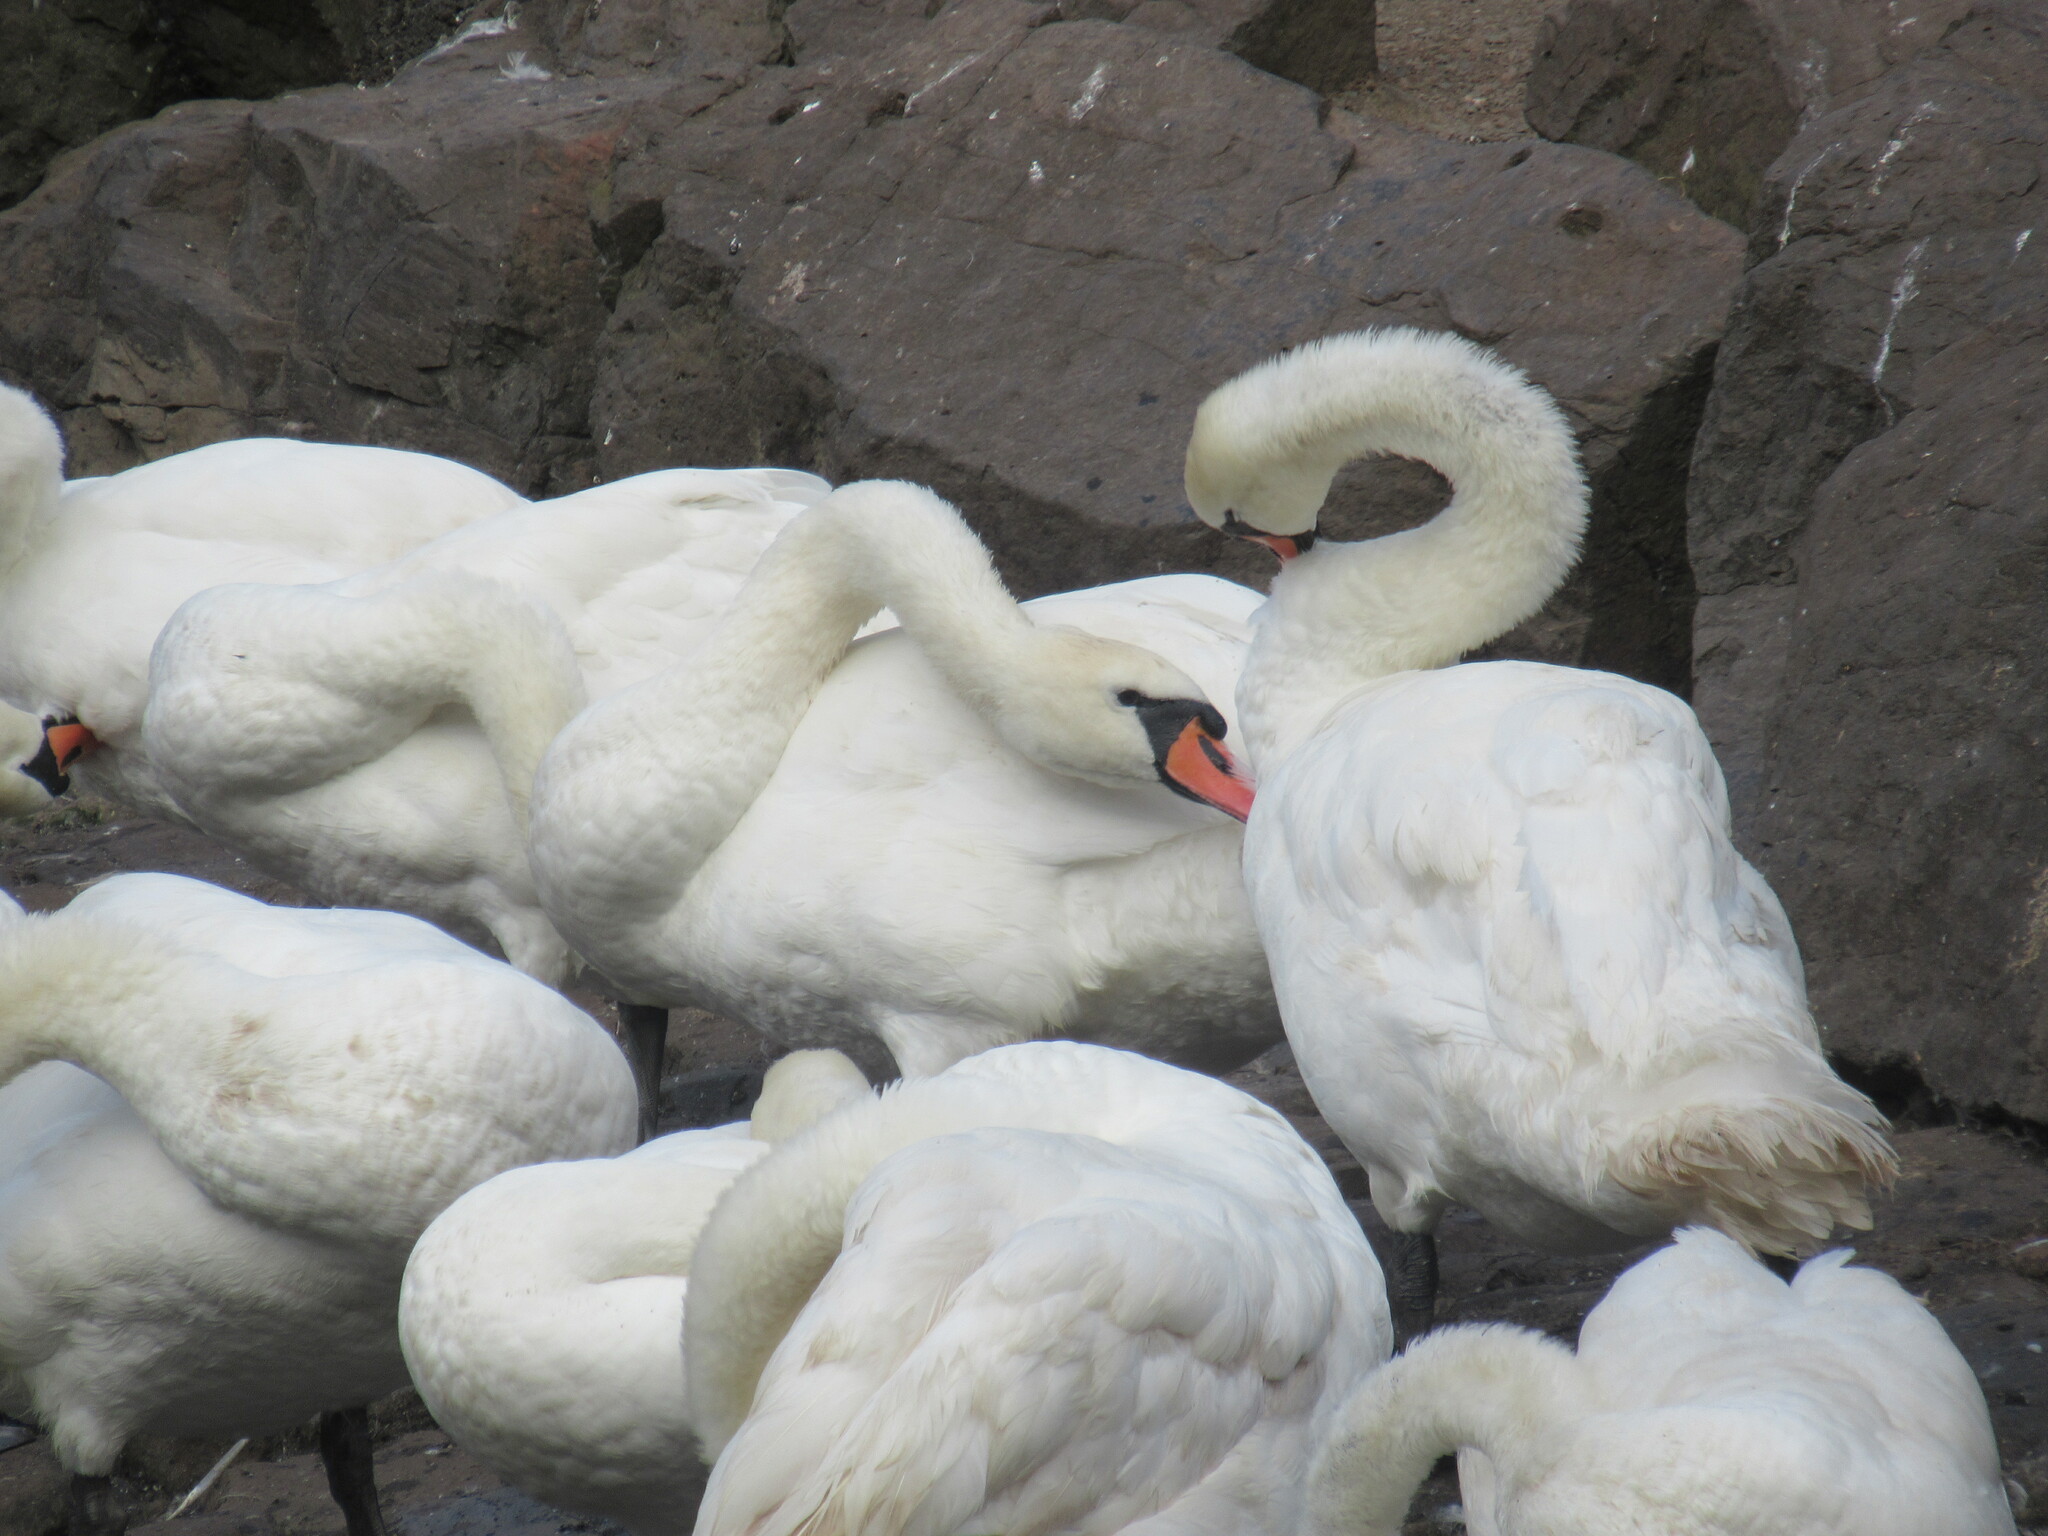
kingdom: Animalia
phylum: Chordata
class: Aves
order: Anseriformes
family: Anatidae
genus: Cygnus
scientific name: Cygnus olor
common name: Mute swan
